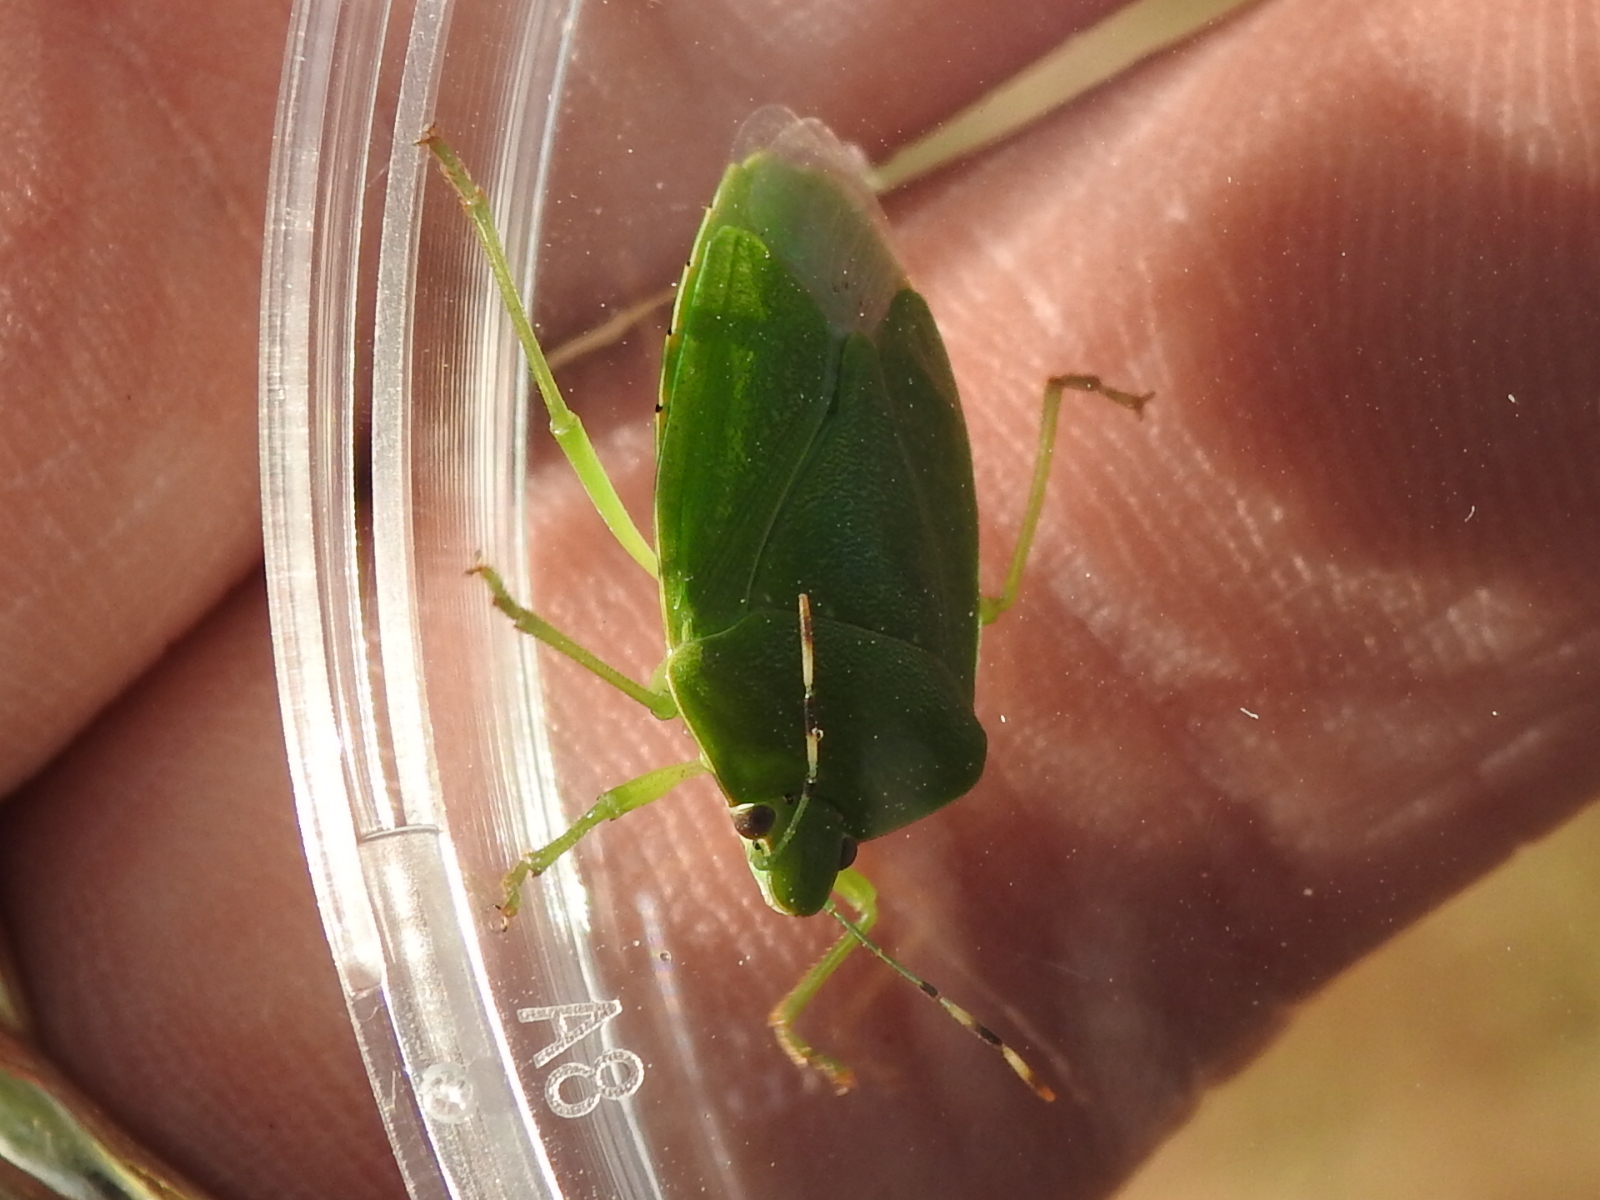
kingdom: Animalia
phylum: Arthropoda
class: Insecta
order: Hemiptera
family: Pentatomidae
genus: Chinavia
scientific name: Chinavia hilaris
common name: Green stink bug
